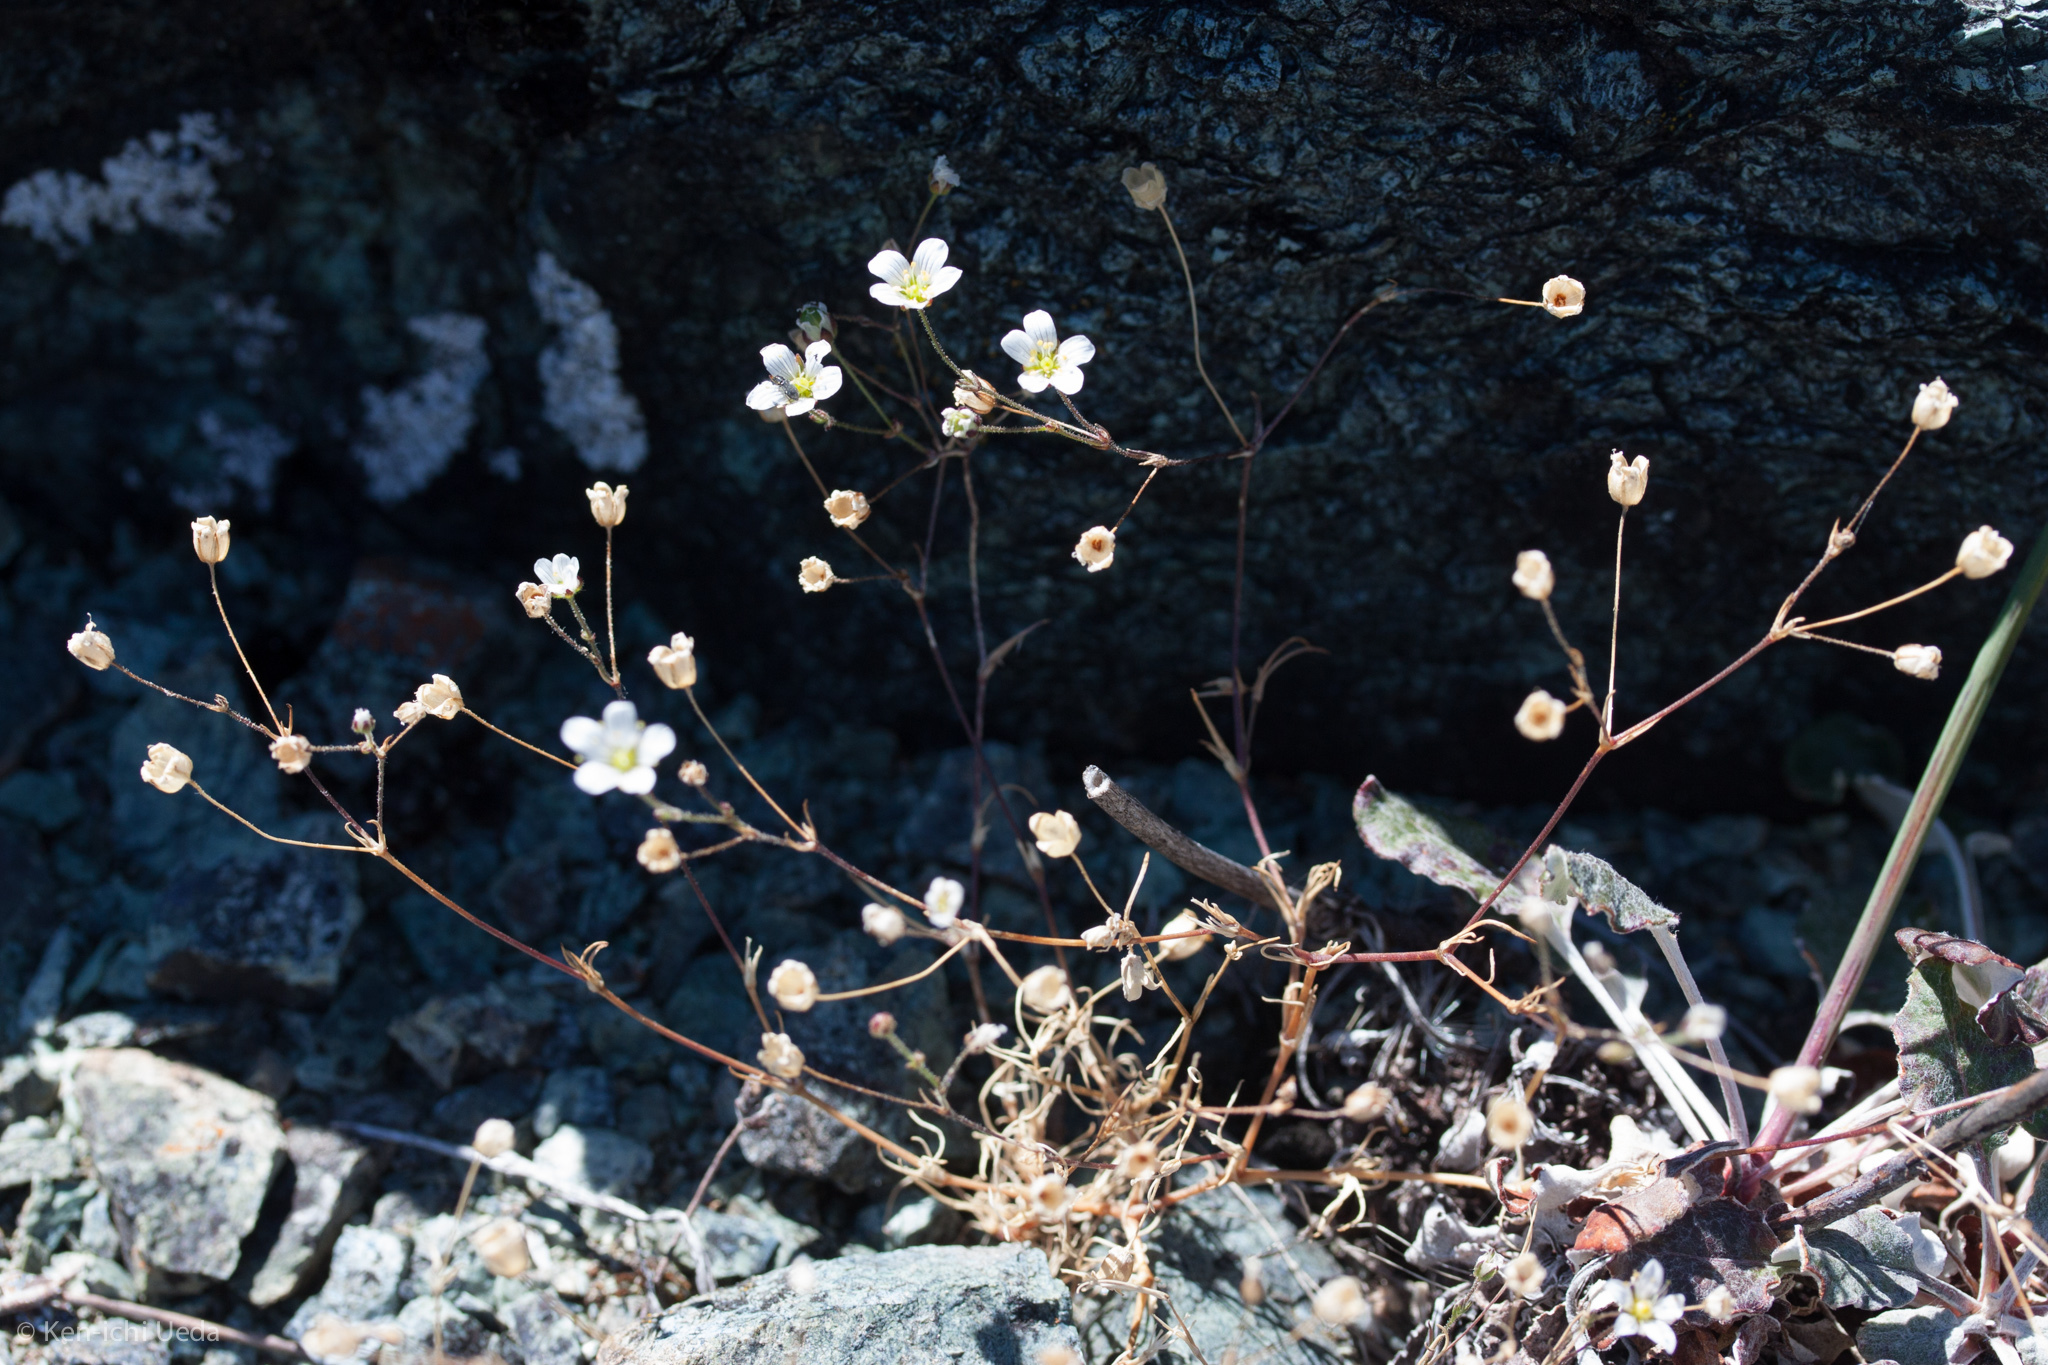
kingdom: Plantae
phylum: Tracheophyta
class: Magnoliopsida
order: Caryophyllales
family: Caryophyllaceae
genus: Sabulina
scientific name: Sabulina douglasii
